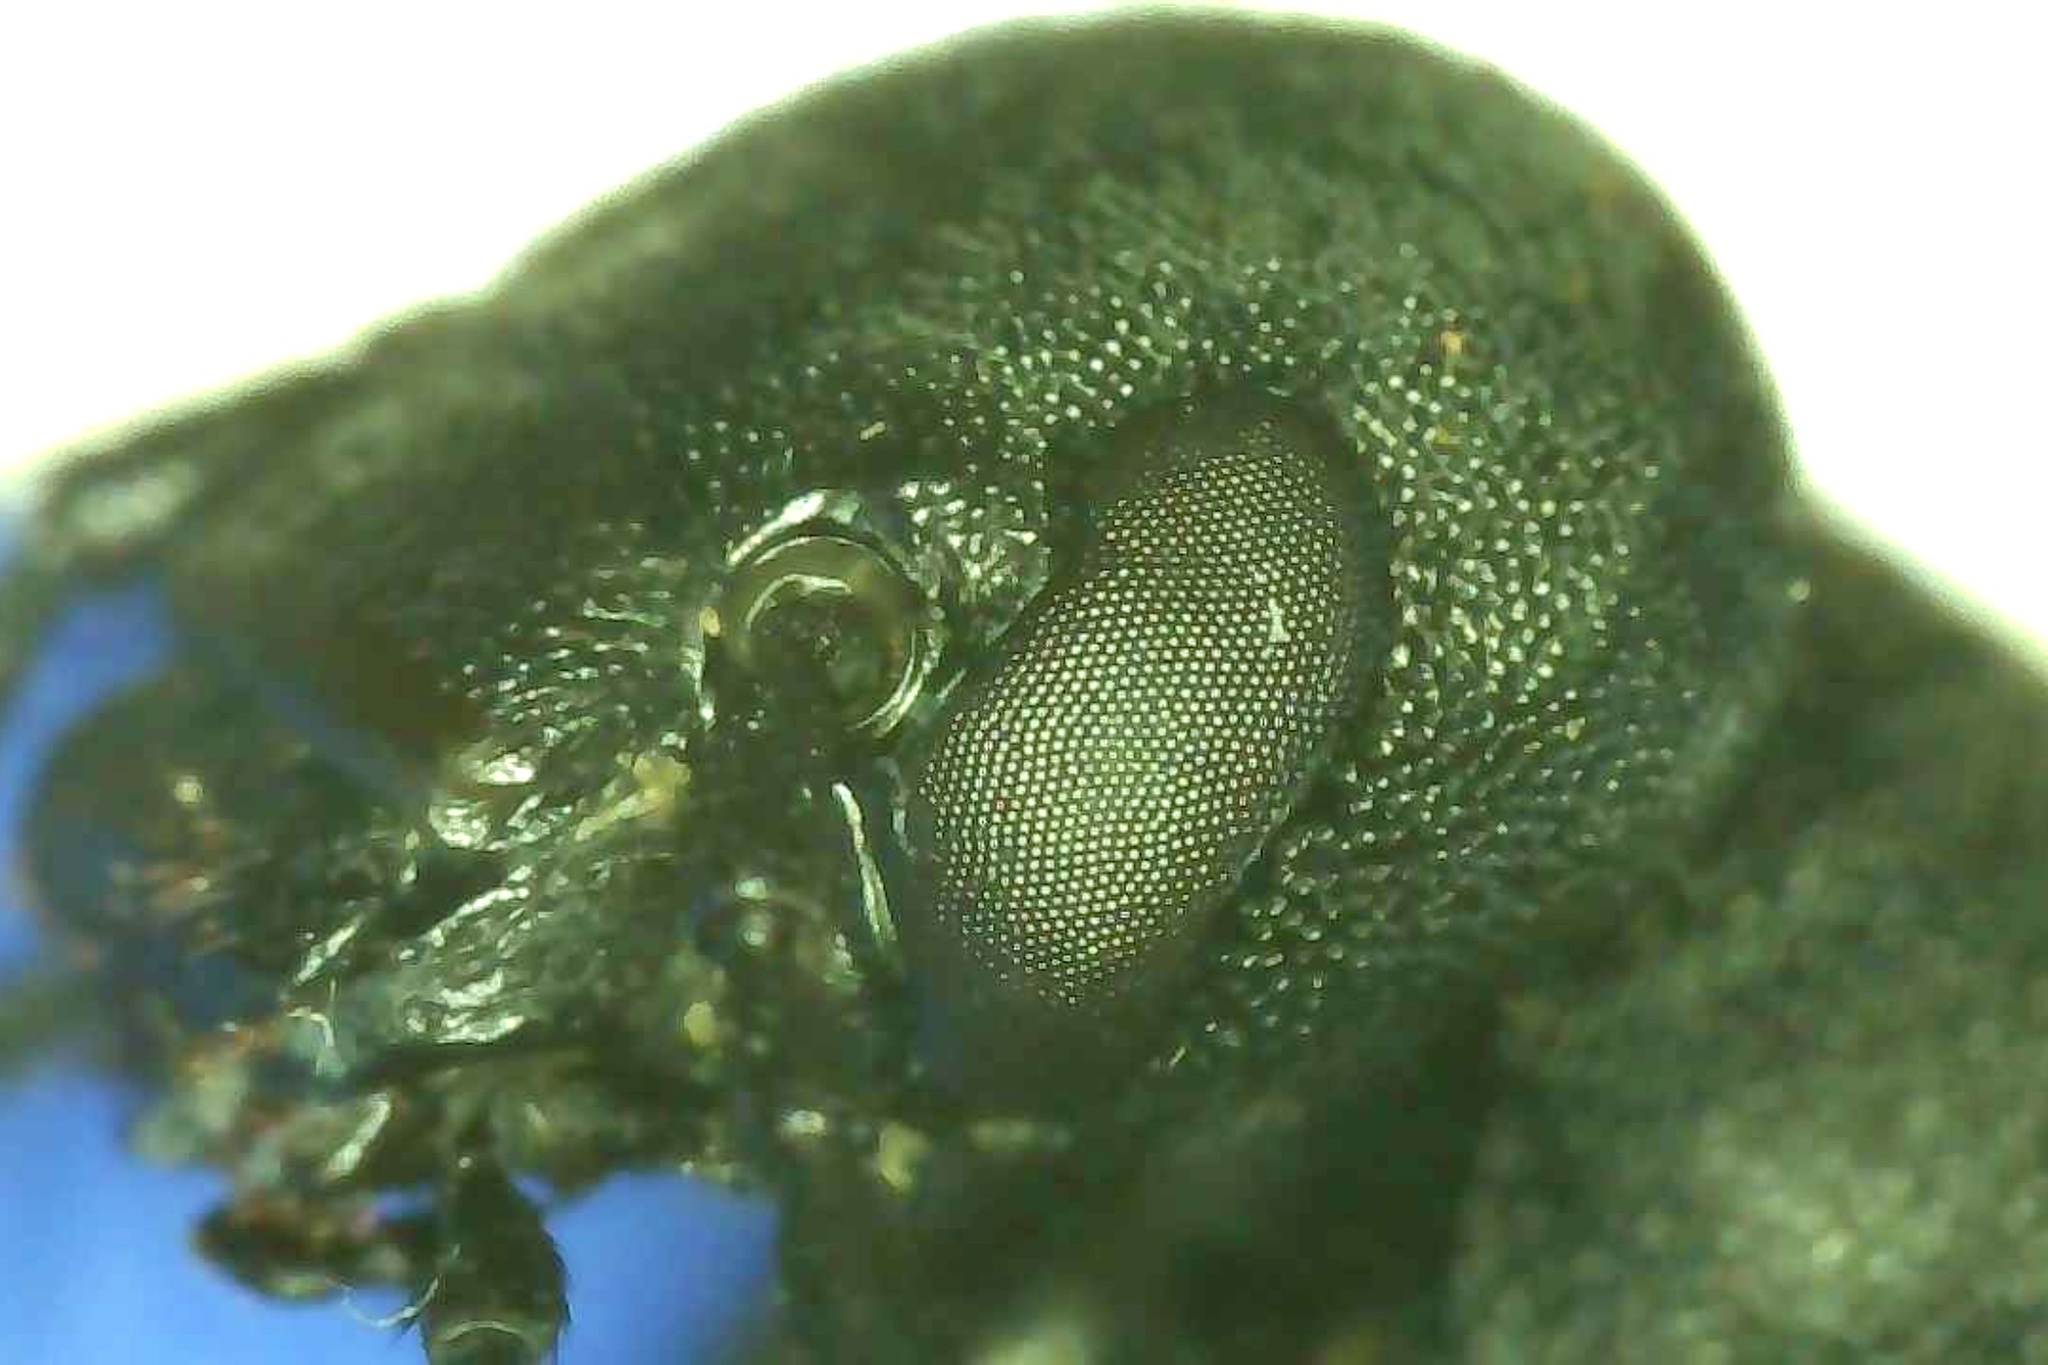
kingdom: Animalia
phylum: Arthropoda
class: Insecta
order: Coleoptera
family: Meloidae
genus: Epicauta
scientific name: Epicauta conferta
